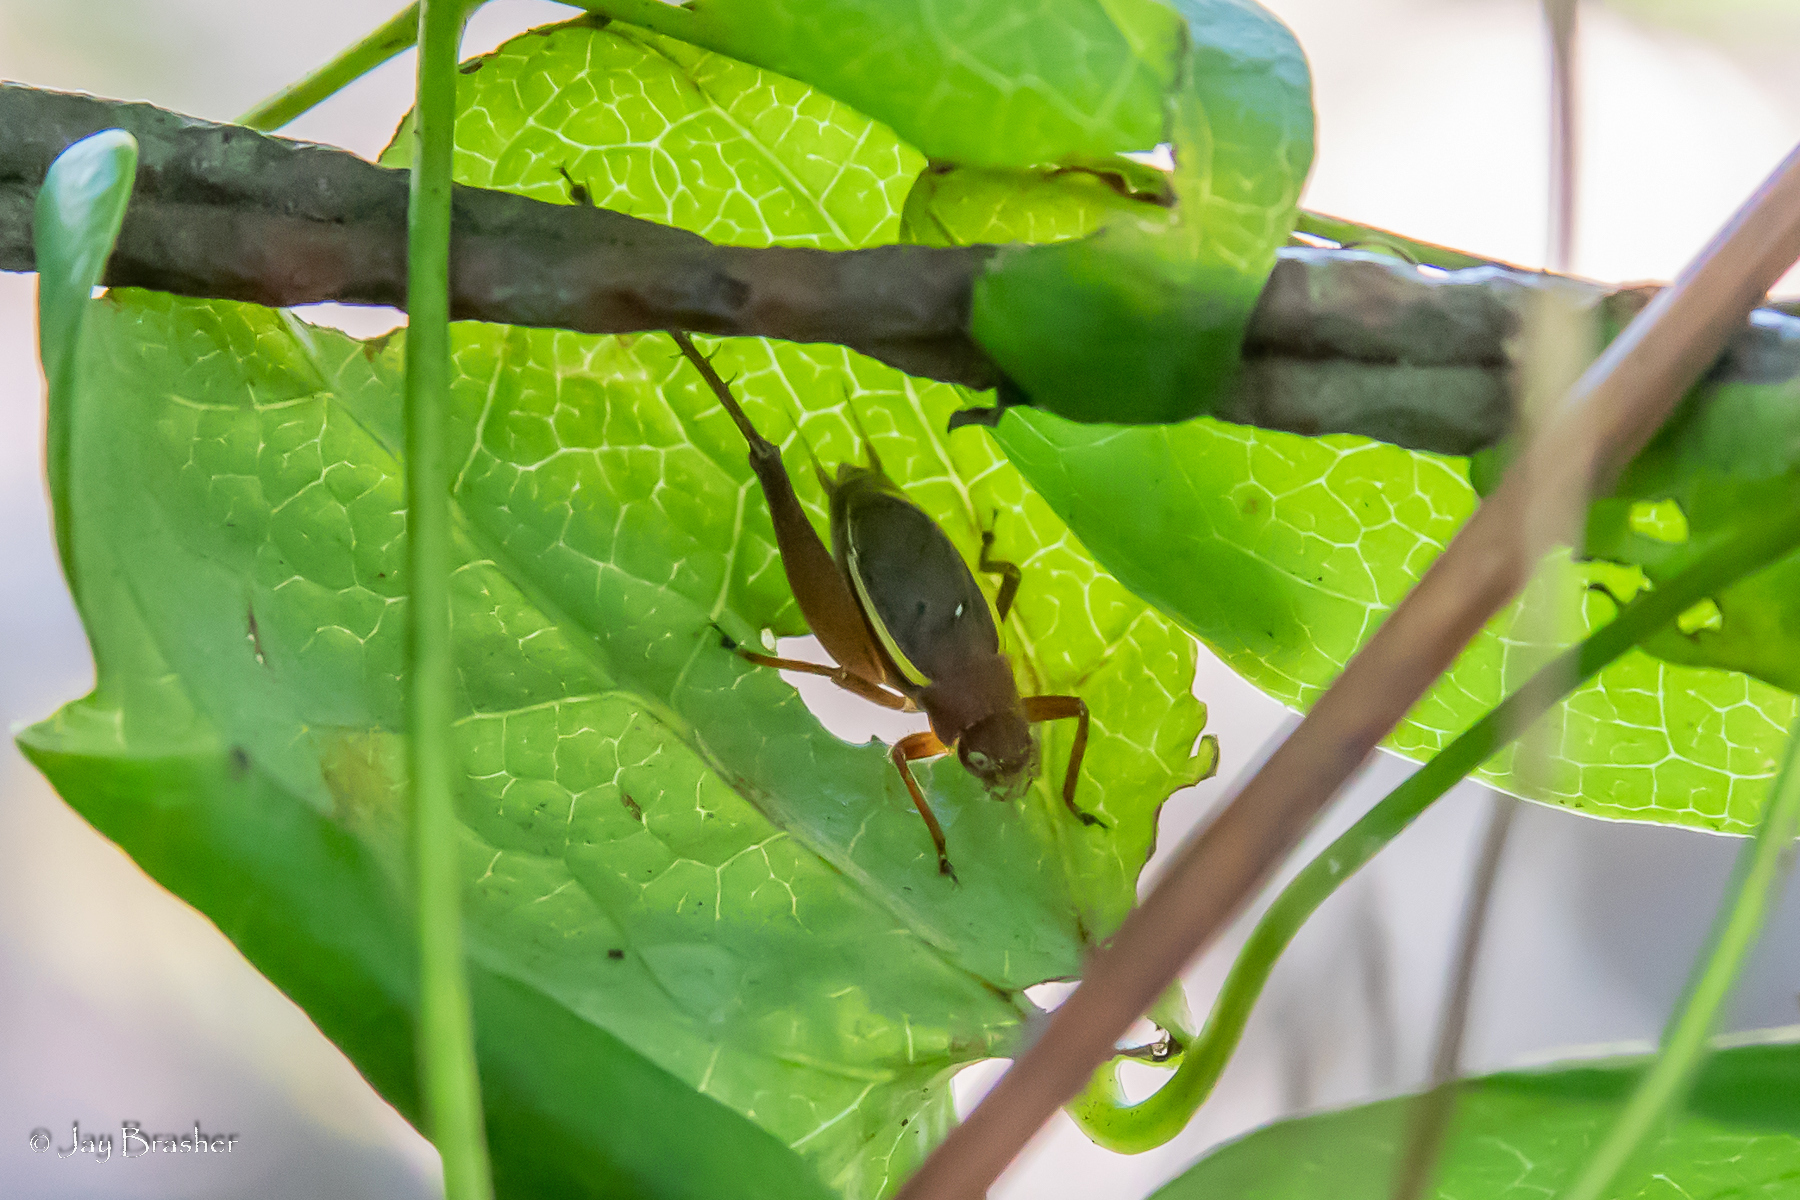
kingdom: Animalia
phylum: Arthropoda
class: Insecta
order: Orthoptera
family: Gryllidae
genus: Hapithus
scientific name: Hapithus agitator
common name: Restless bush cricket
